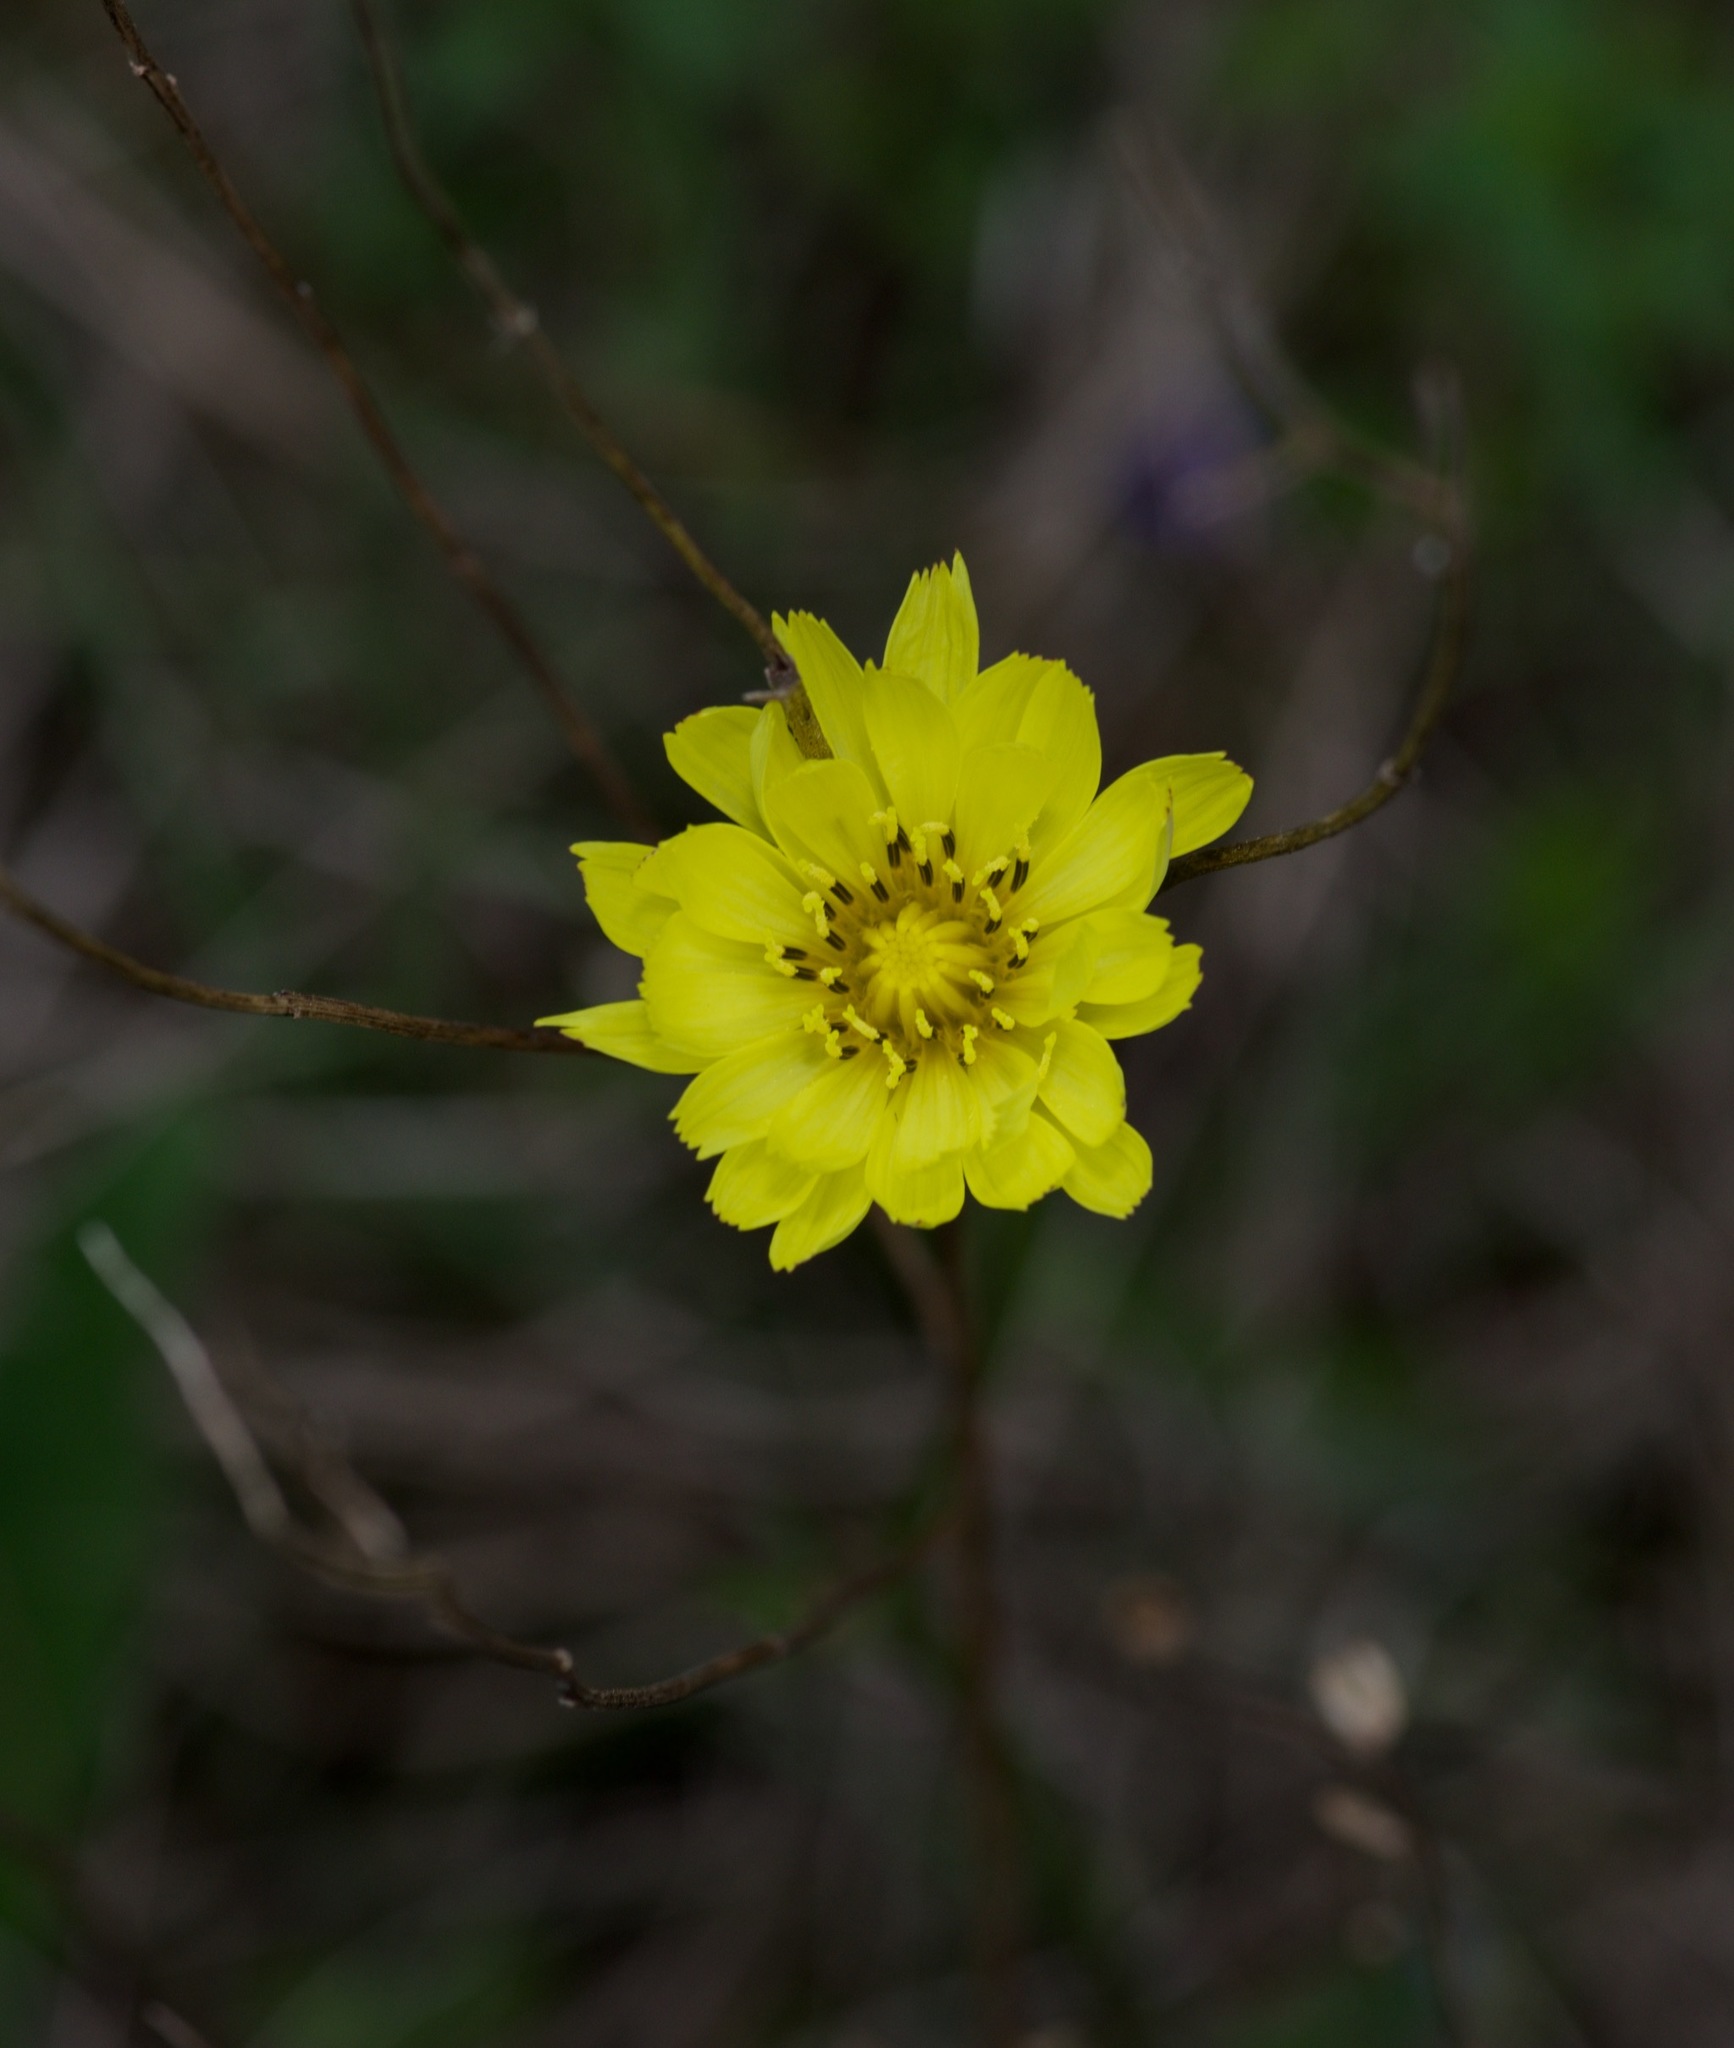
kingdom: Plantae
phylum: Tracheophyta
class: Magnoliopsida
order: Asterales
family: Asteraceae
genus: Pyrrhopappus
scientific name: Pyrrhopappus pauciflorus
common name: Texas false dandelion
